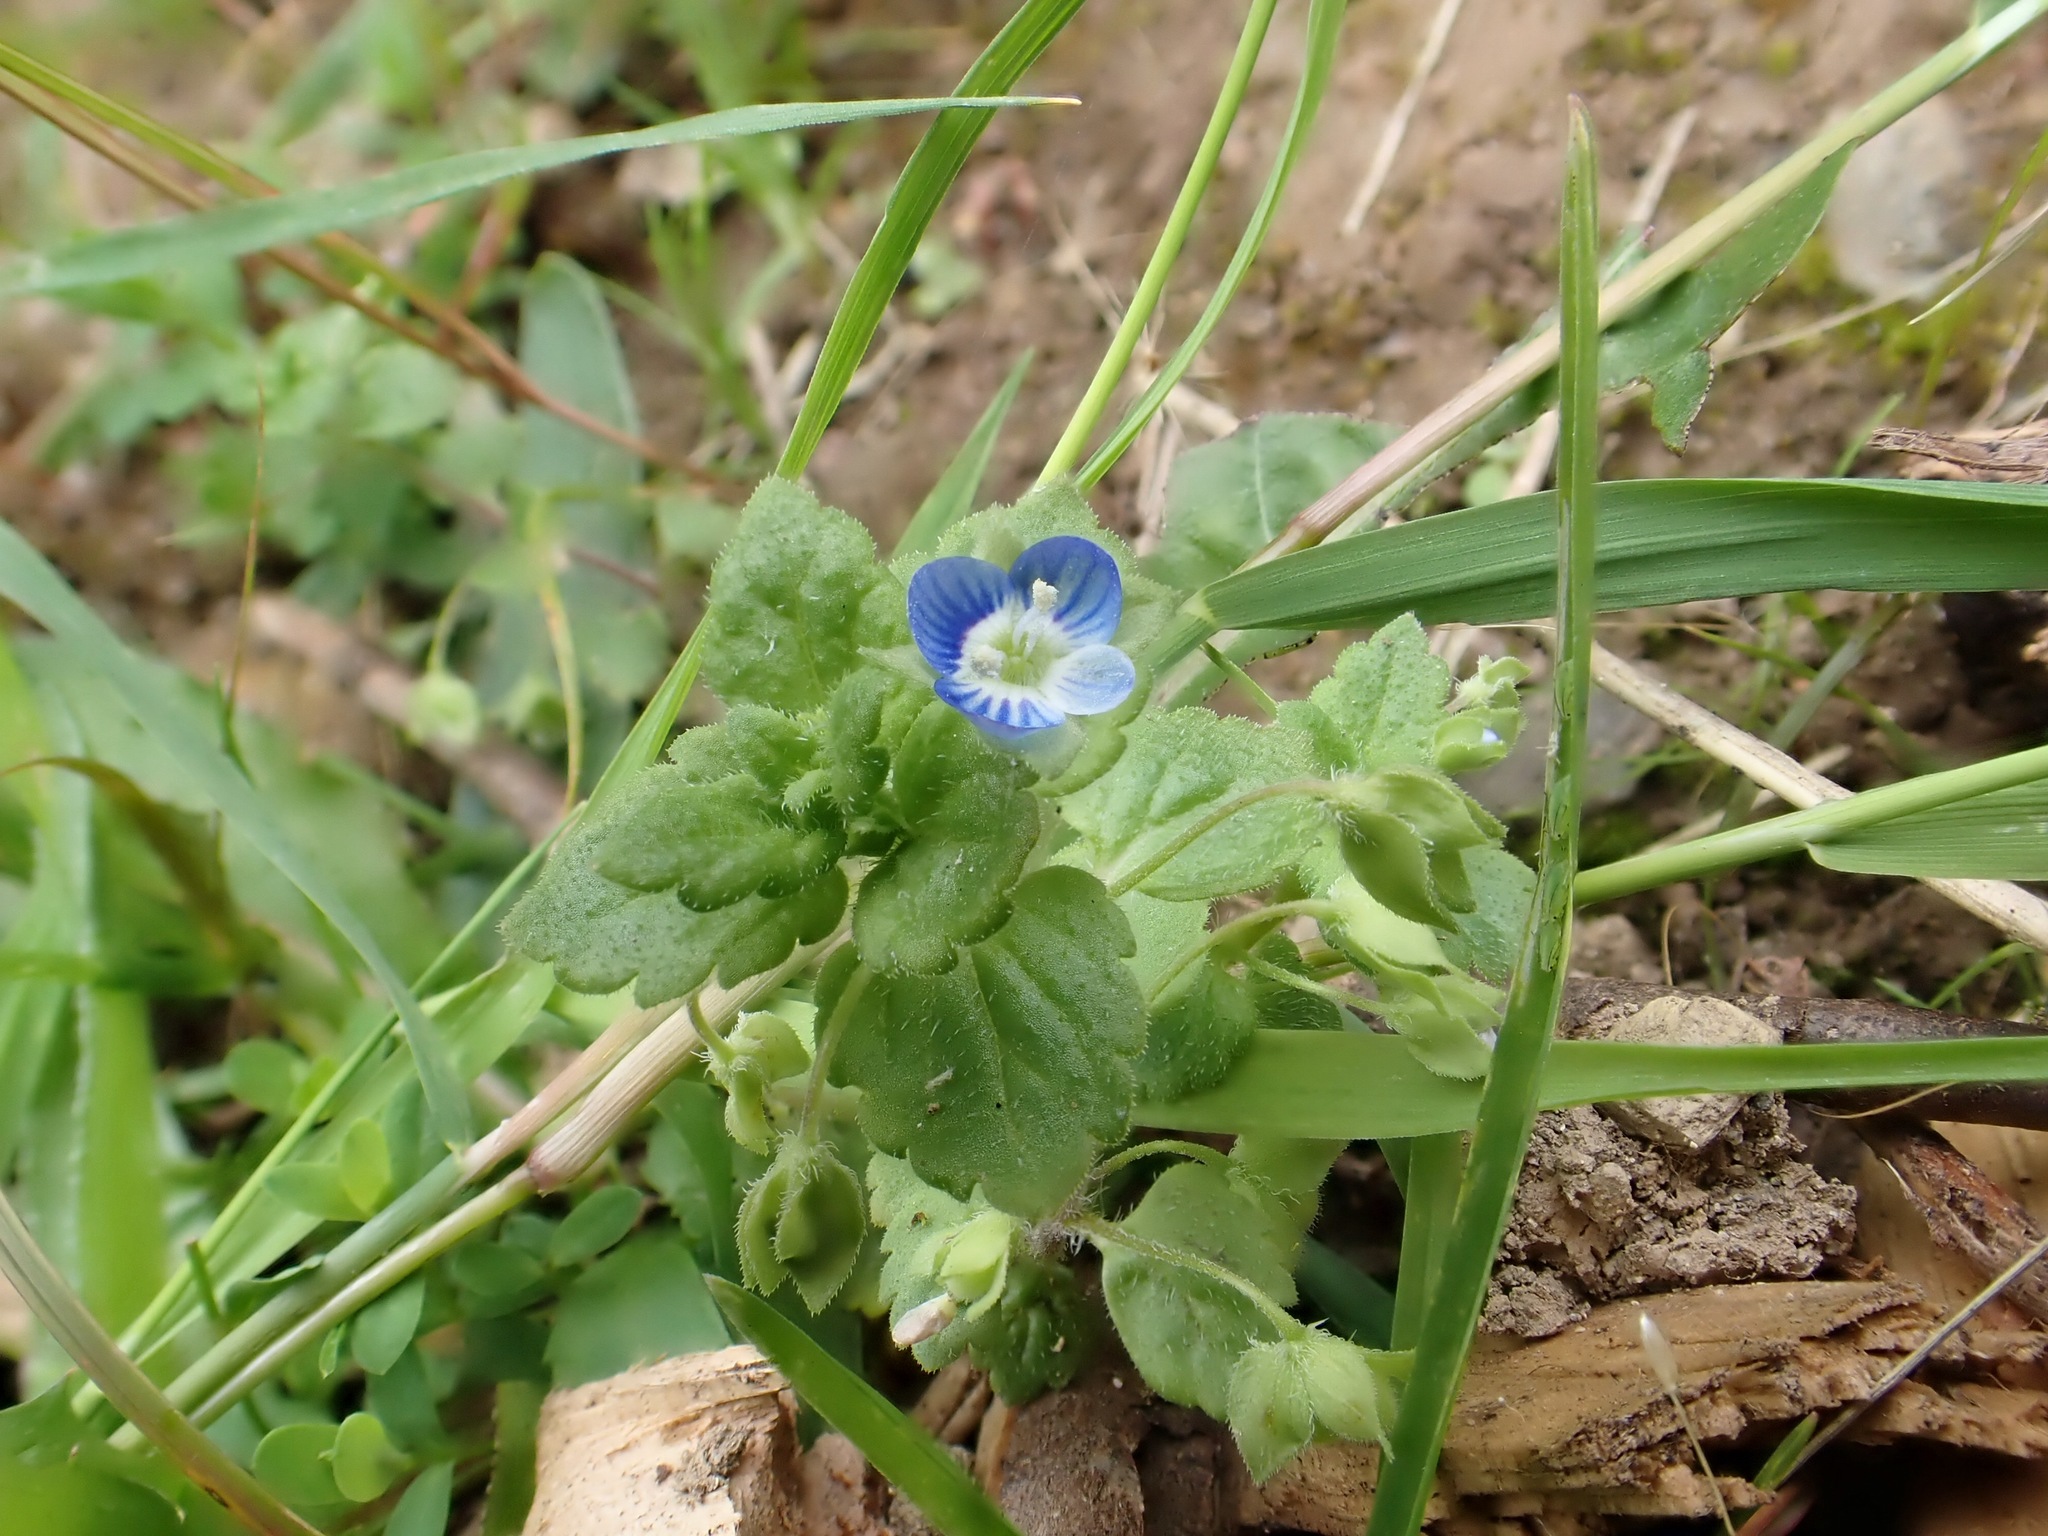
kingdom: Plantae
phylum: Tracheophyta
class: Magnoliopsida
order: Lamiales
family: Plantaginaceae
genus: Veronica
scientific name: Veronica persica
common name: Common field-speedwell
